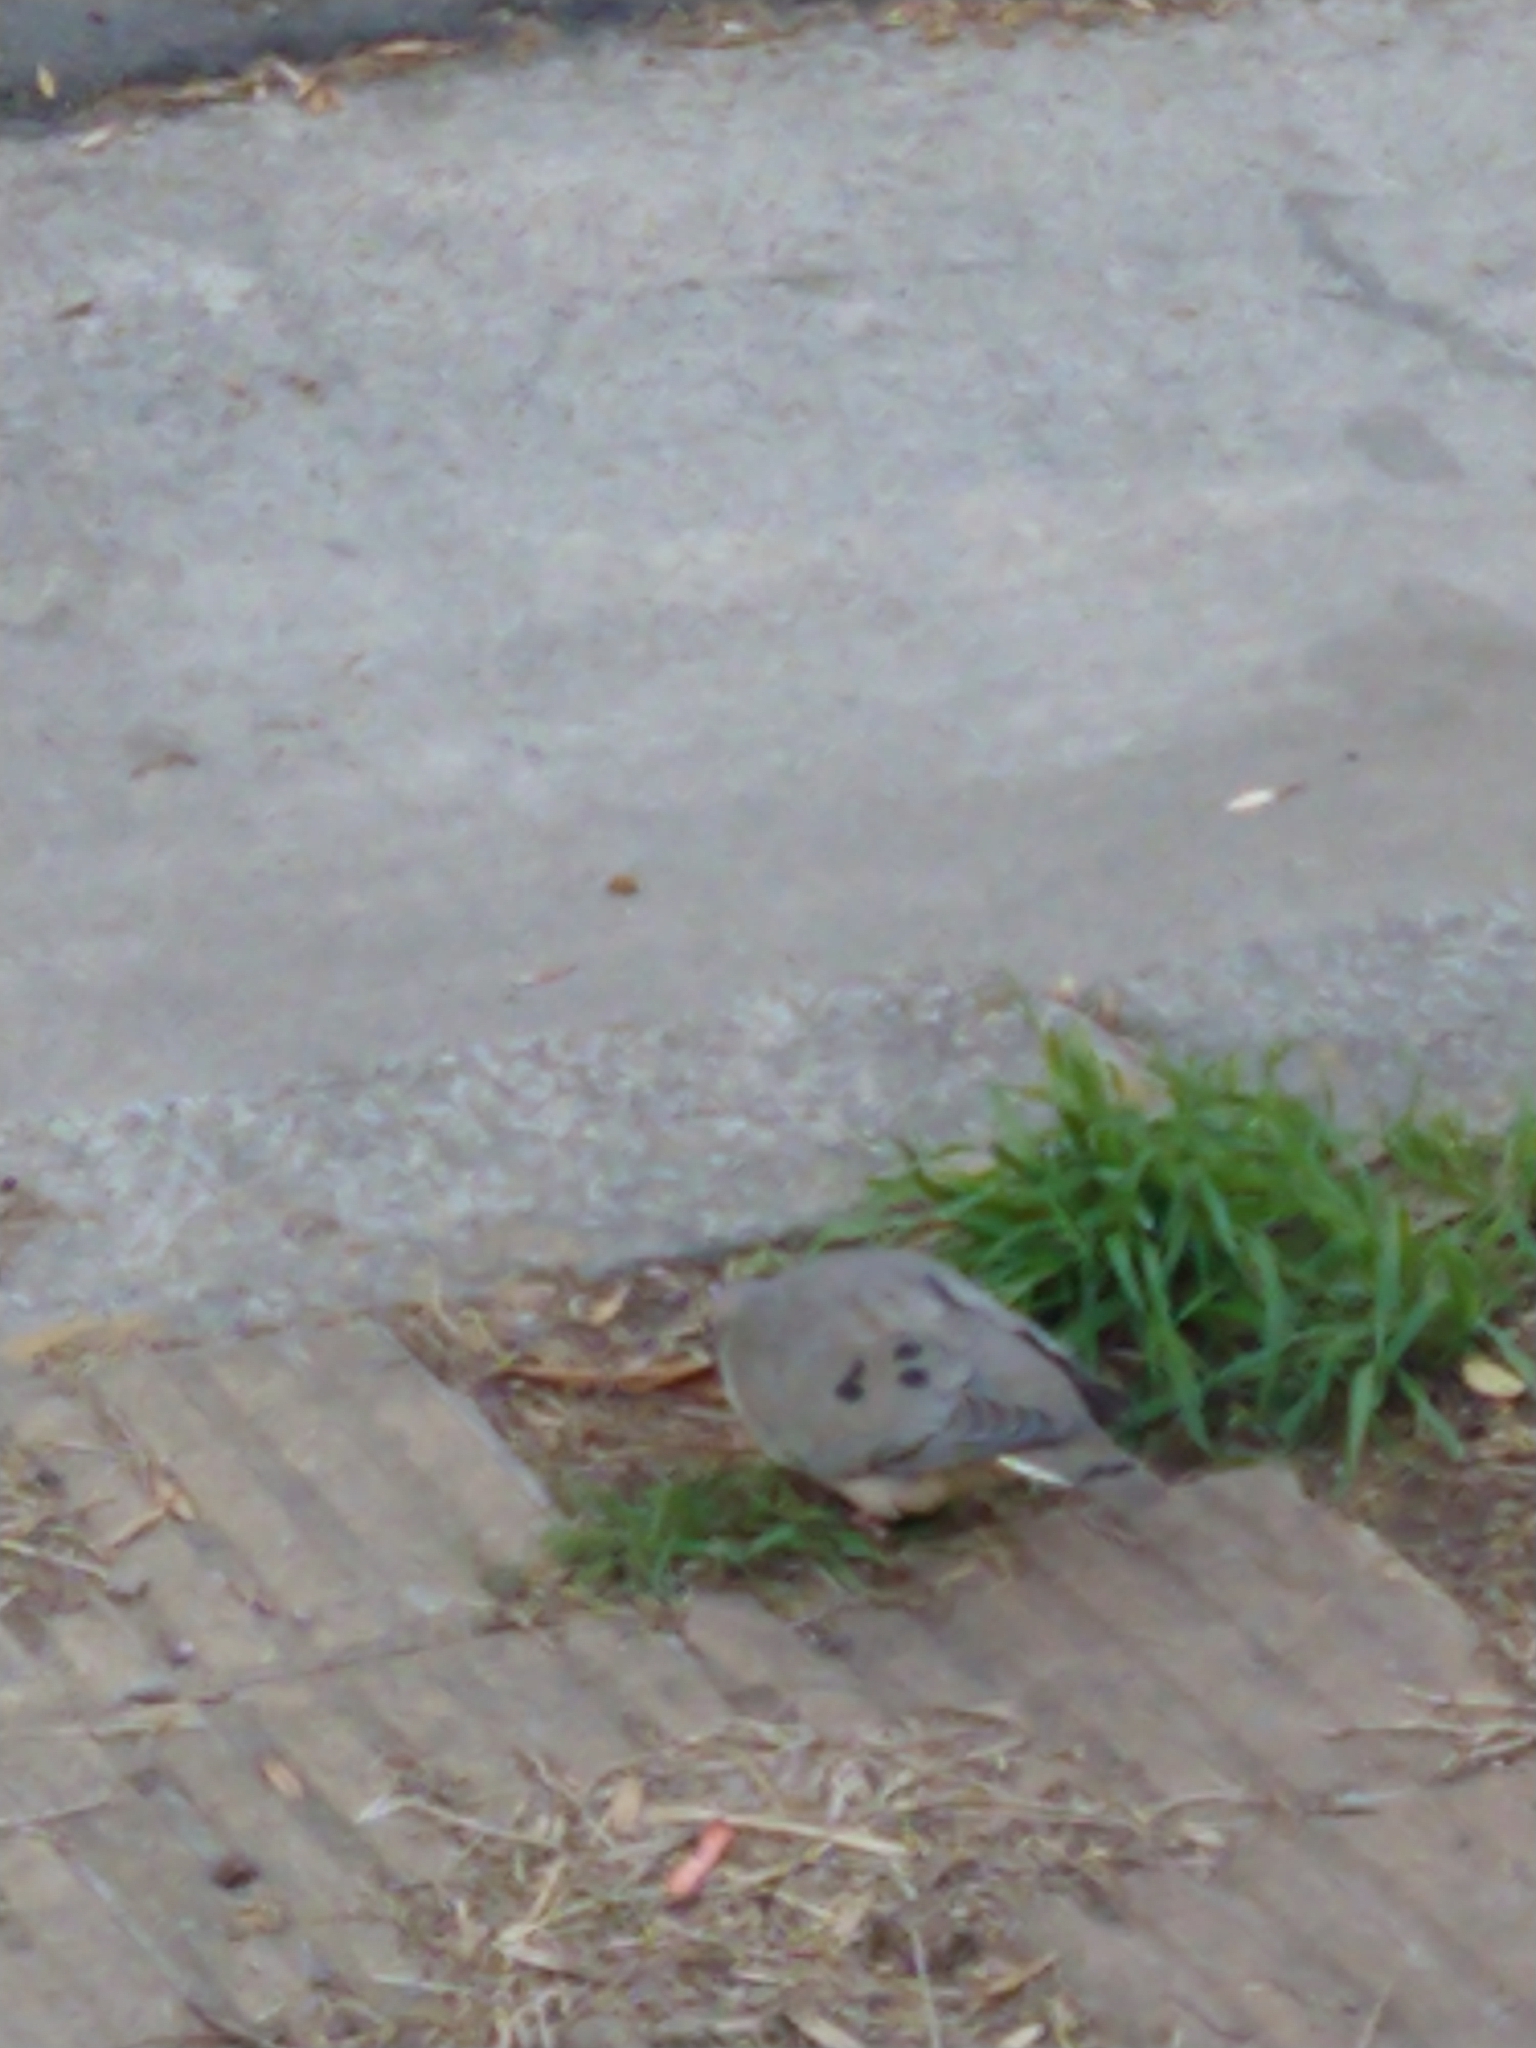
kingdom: Animalia
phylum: Chordata
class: Aves
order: Columbiformes
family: Columbidae
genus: Zenaida
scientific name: Zenaida auriculata
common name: Eared dove
